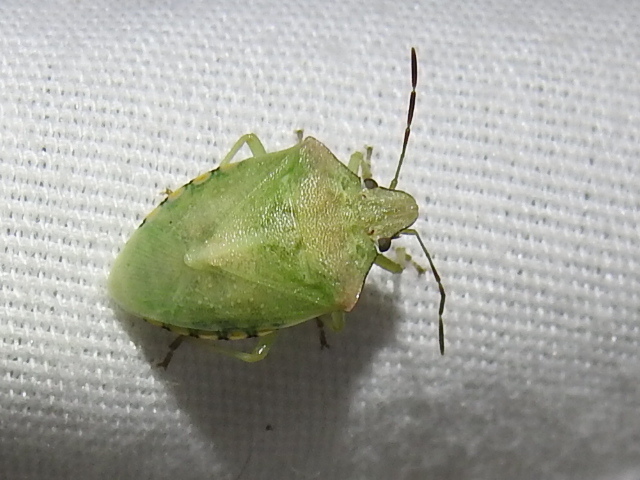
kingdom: Animalia
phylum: Arthropoda
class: Insecta
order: Hemiptera
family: Pentatomidae
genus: Thyanta
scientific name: Thyanta custator
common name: Stink bug
